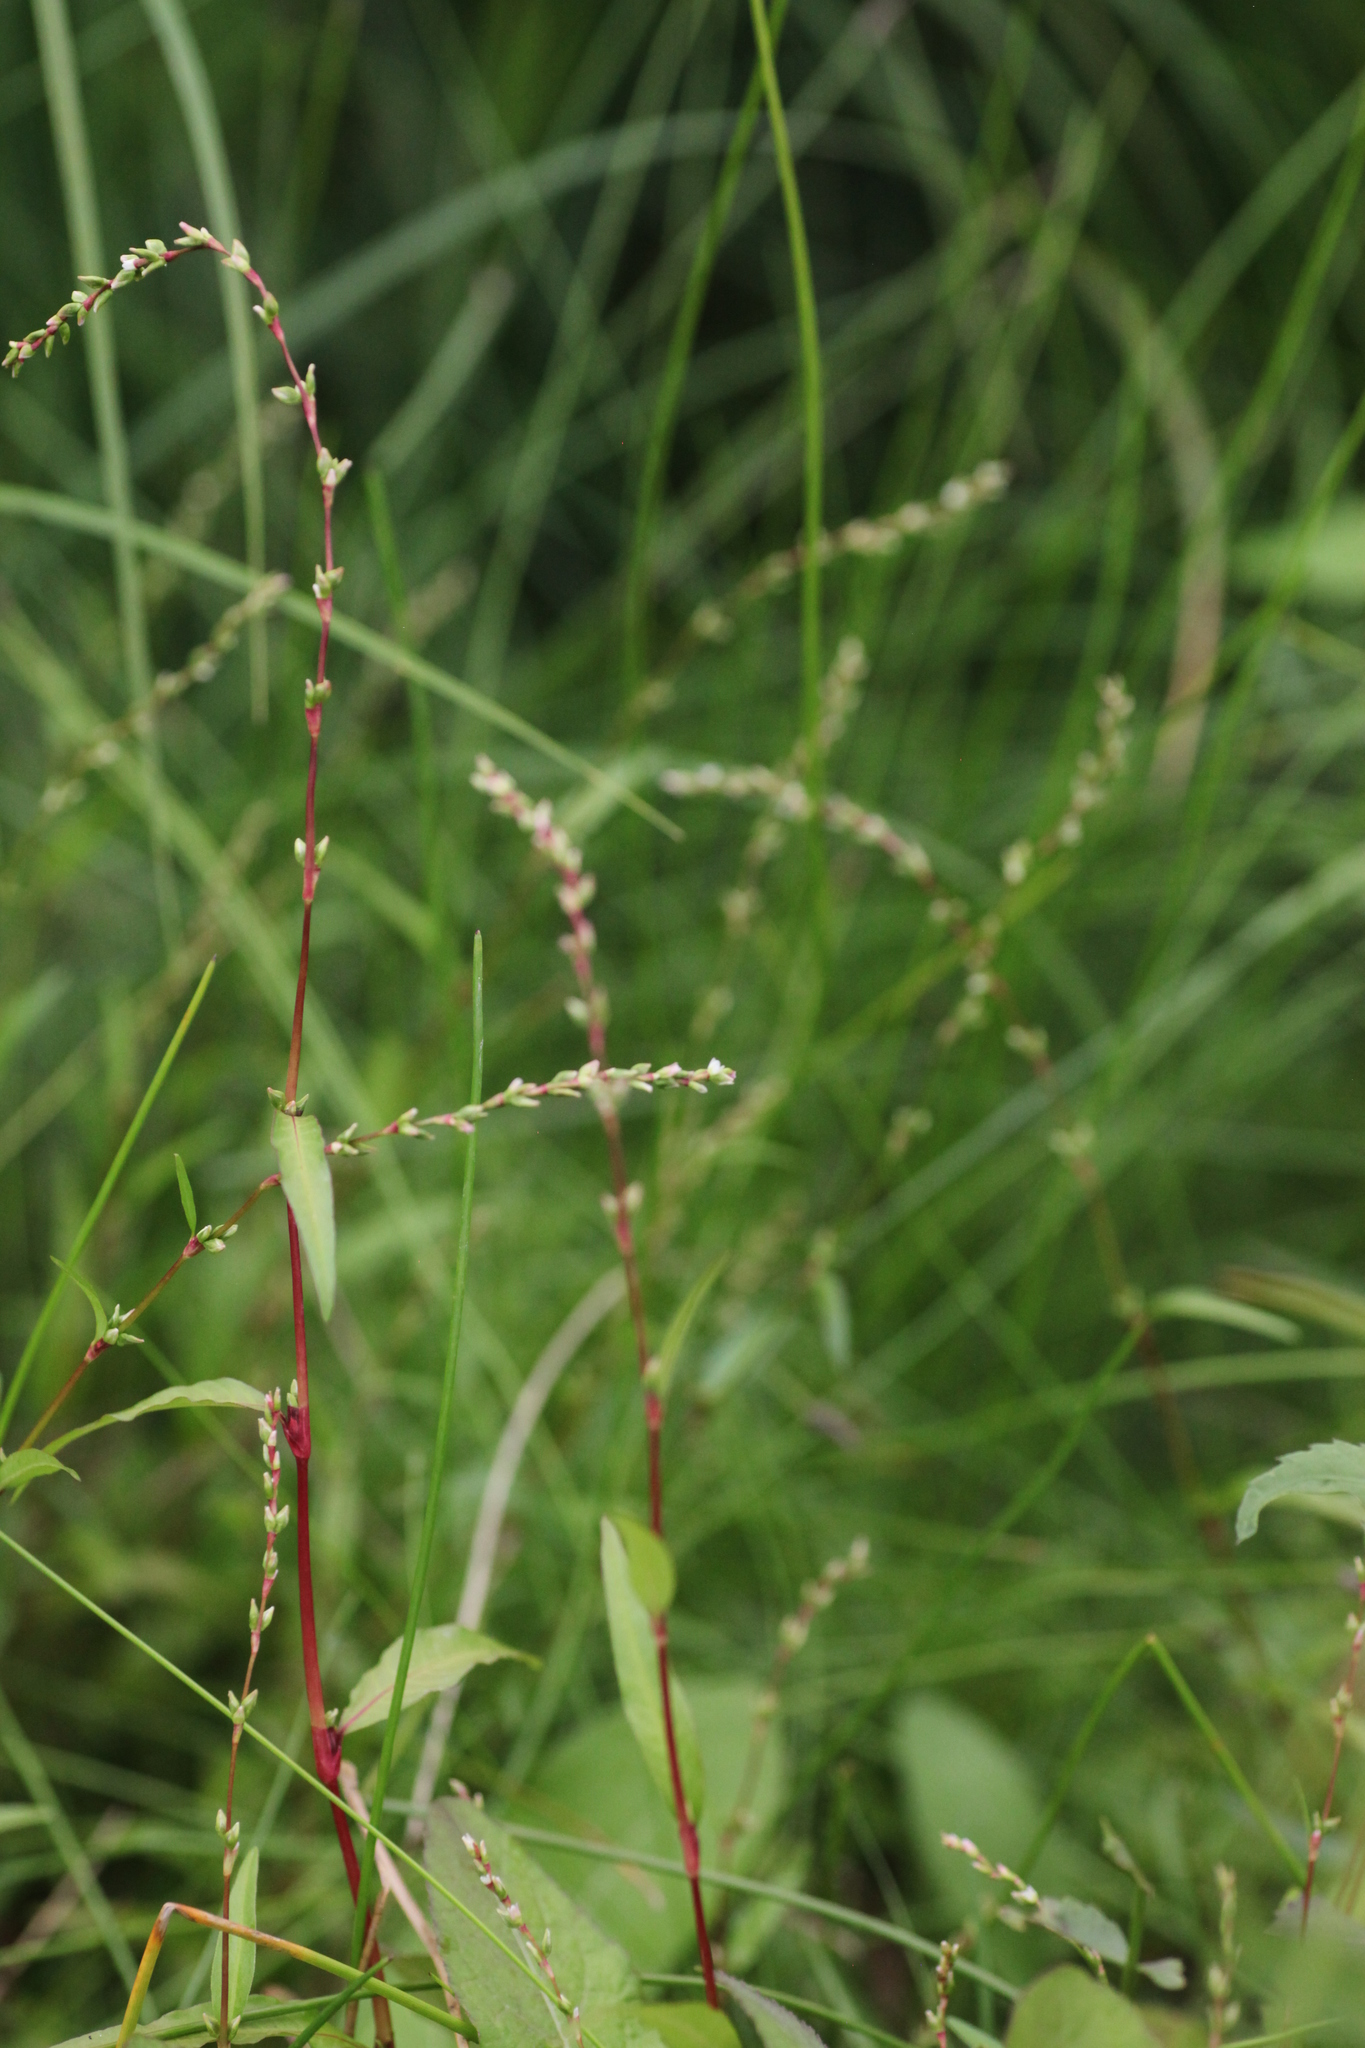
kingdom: Plantae
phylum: Tracheophyta
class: Magnoliopsida
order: Caryophyllales
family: Polygonaceae
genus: Persicaria
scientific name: Persicaria hydropiper
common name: Water-pepper
